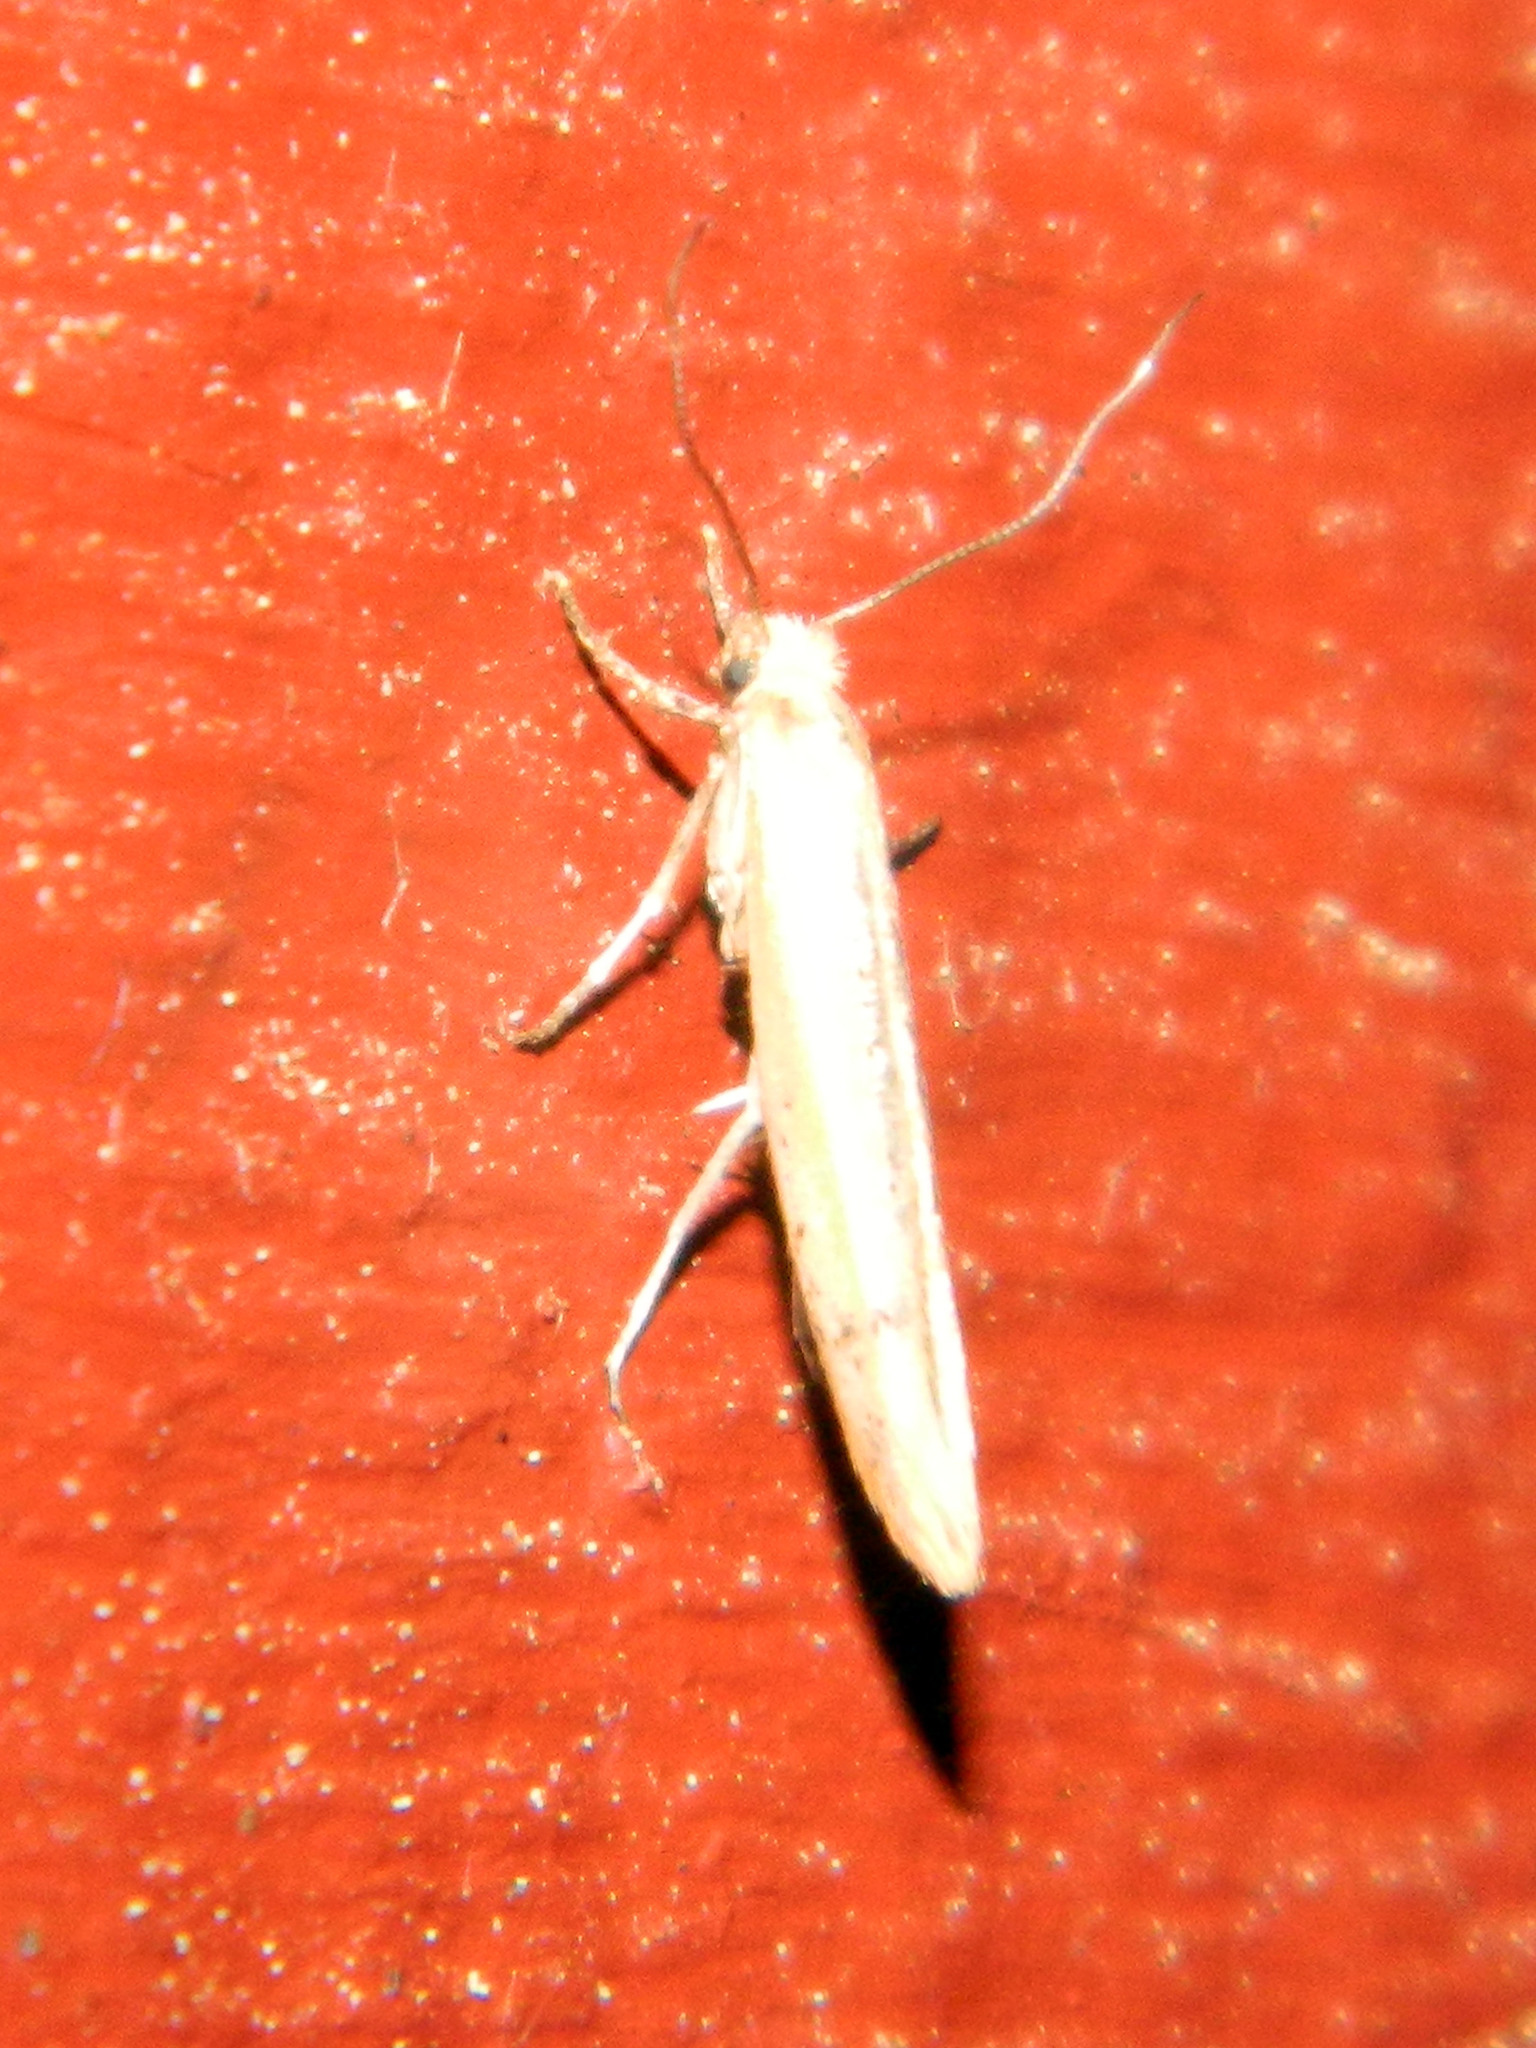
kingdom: Animalia
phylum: Arthropoda
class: Insecta
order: Lepidoptera
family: Yponomeutidae
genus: Euhyponomeutoides
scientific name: Euhyponomeutoides gracilariella
